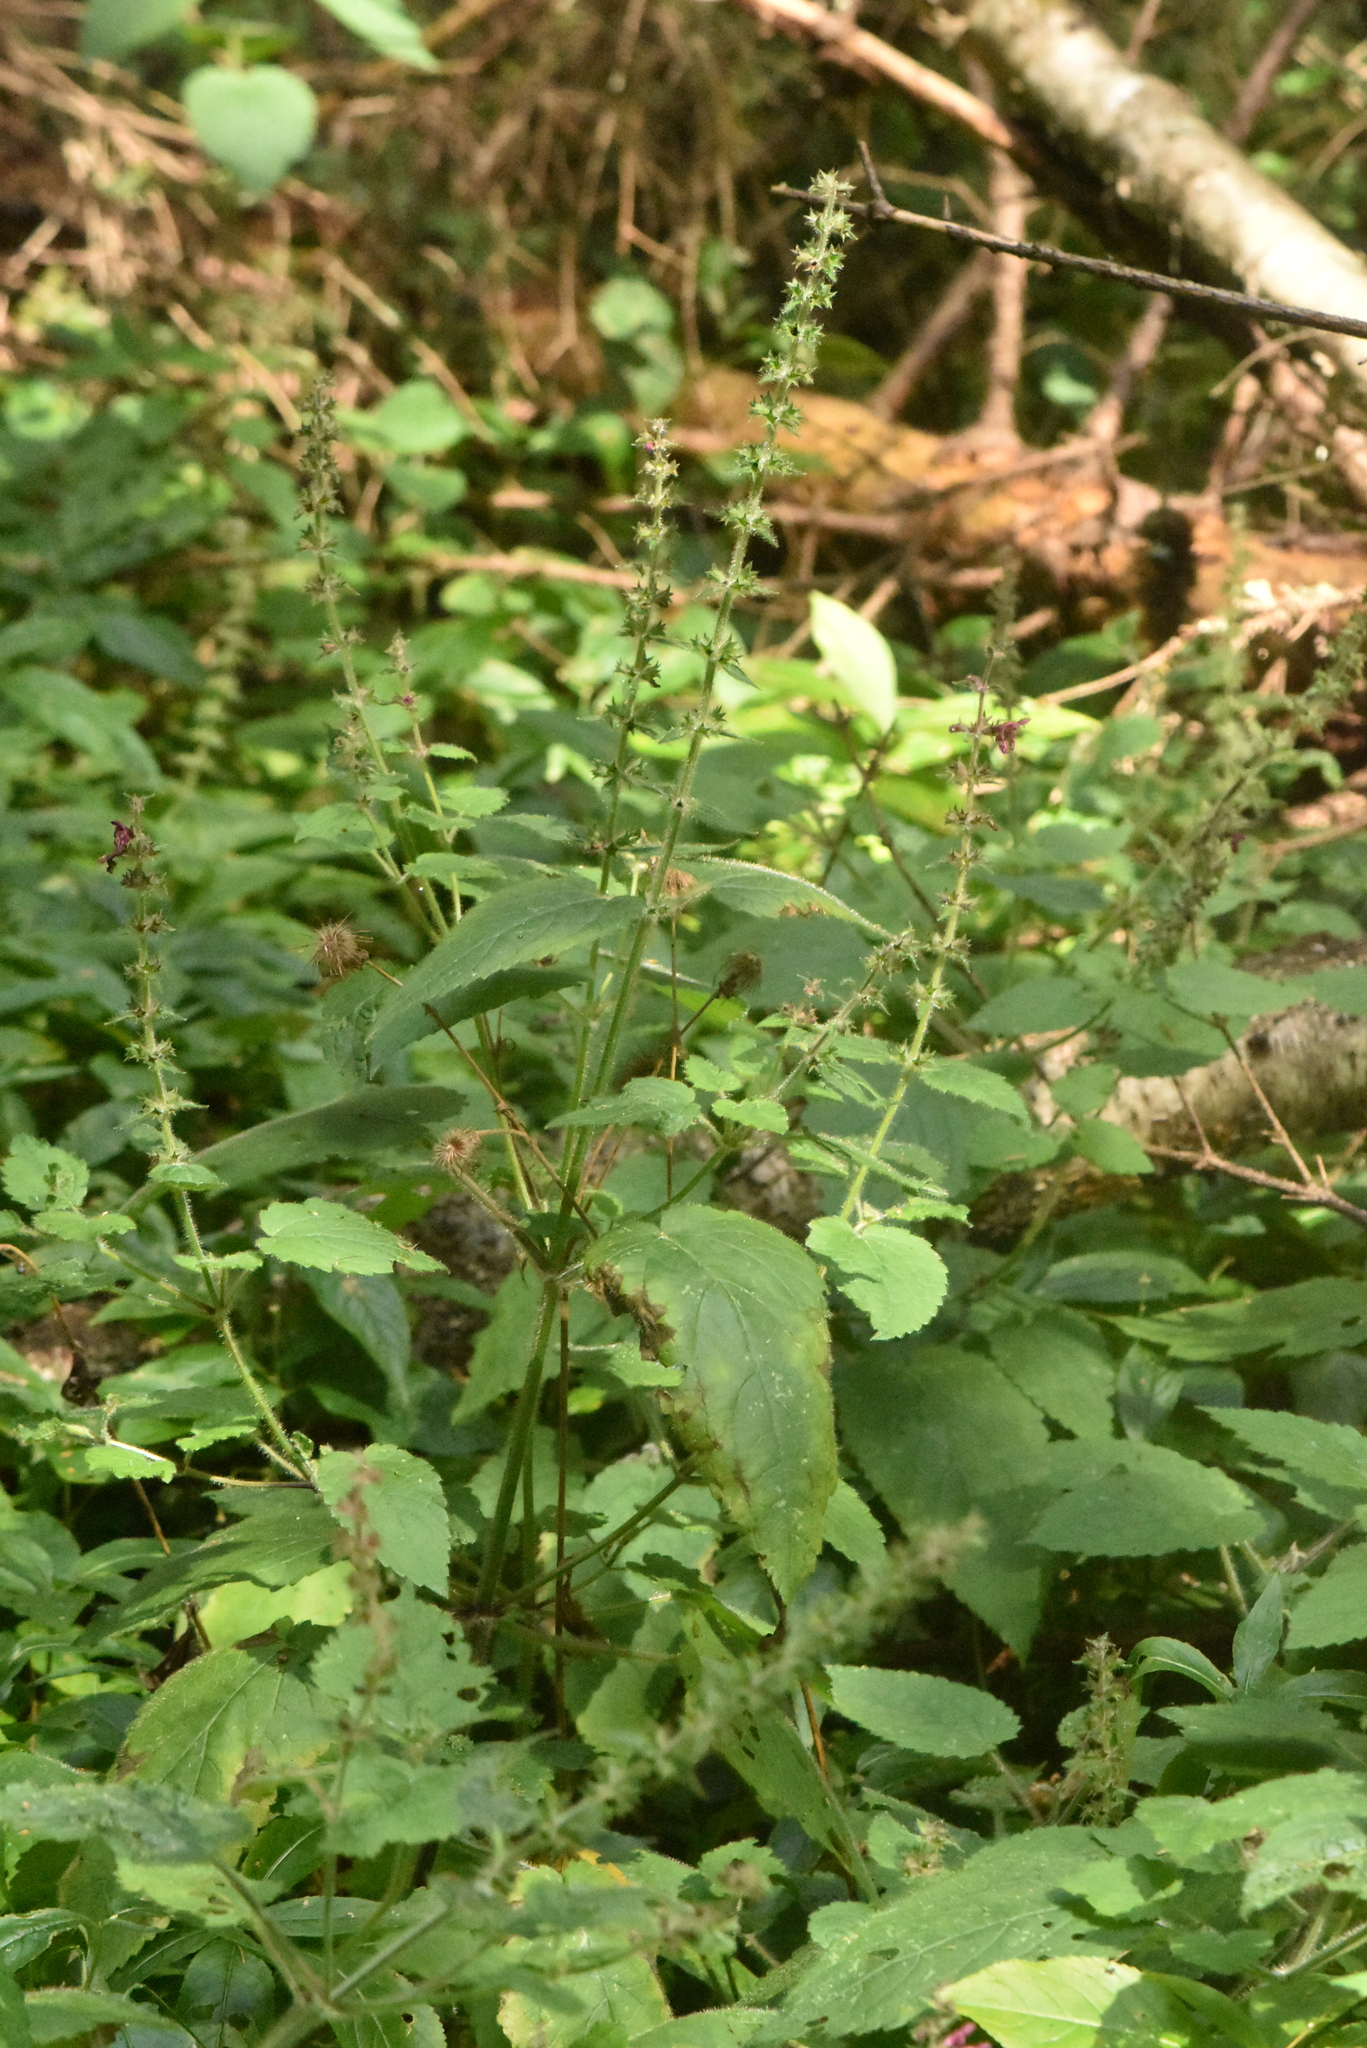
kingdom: Plantae
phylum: Tracheophyta
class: Magnoliopsida
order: Lamiales
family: Lamiaceae
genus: Stachys
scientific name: Stachys sylvatica
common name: Hedge woundwort
